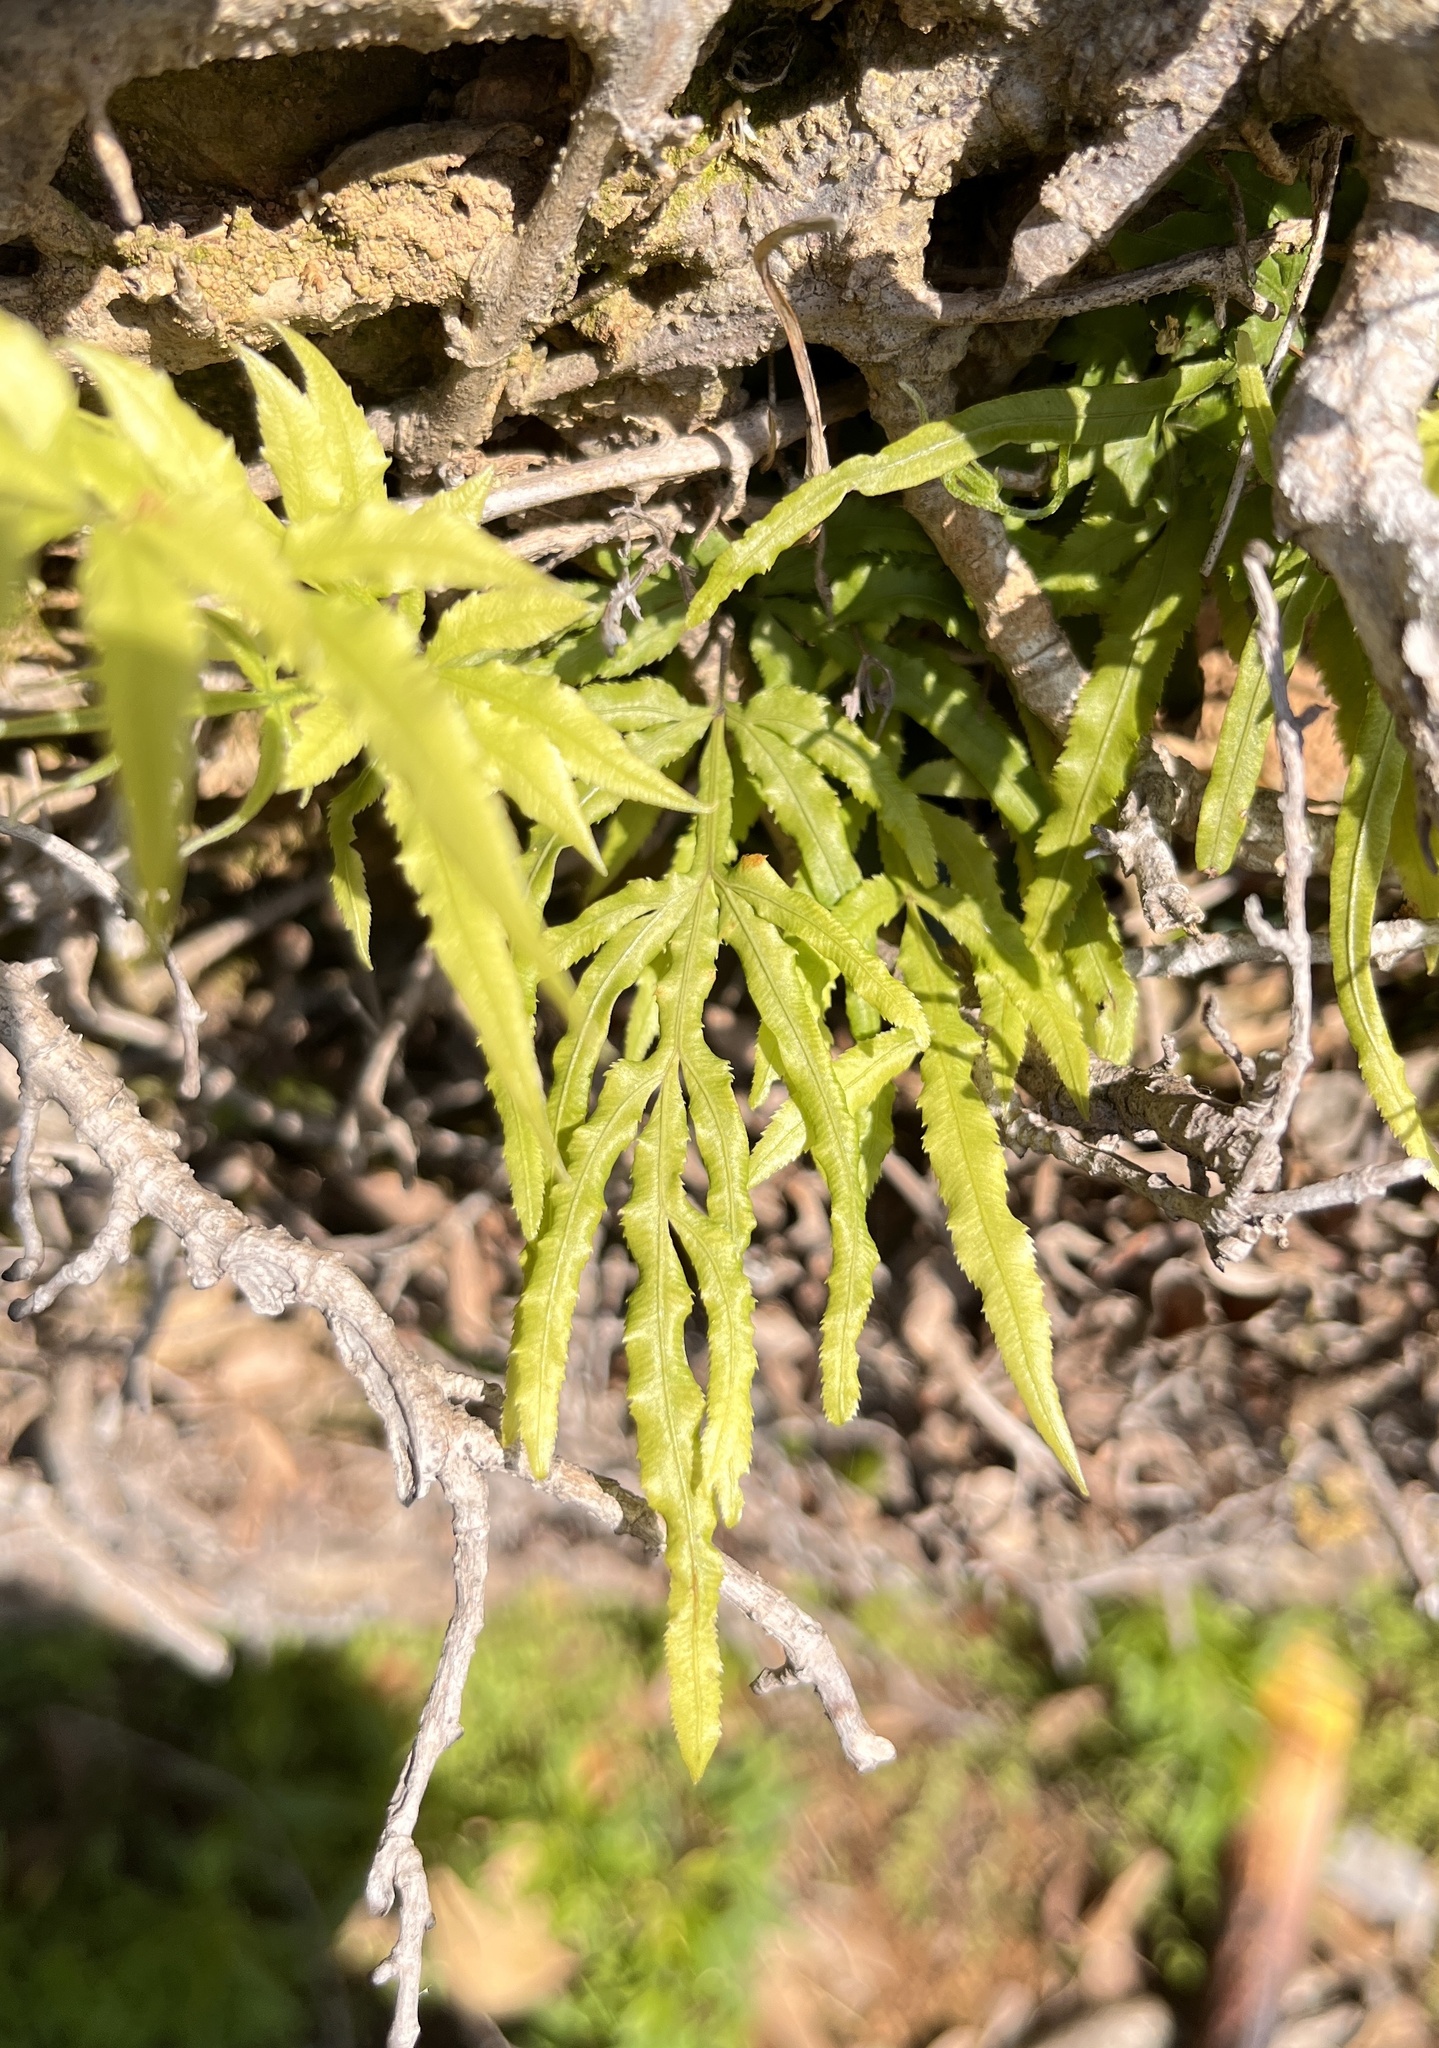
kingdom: Plantae
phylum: Tracheophyta
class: Polypodiopsida
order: Polypodiales
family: Pteridaceae
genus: Pteris
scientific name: Pteris multifida
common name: Spider brake
